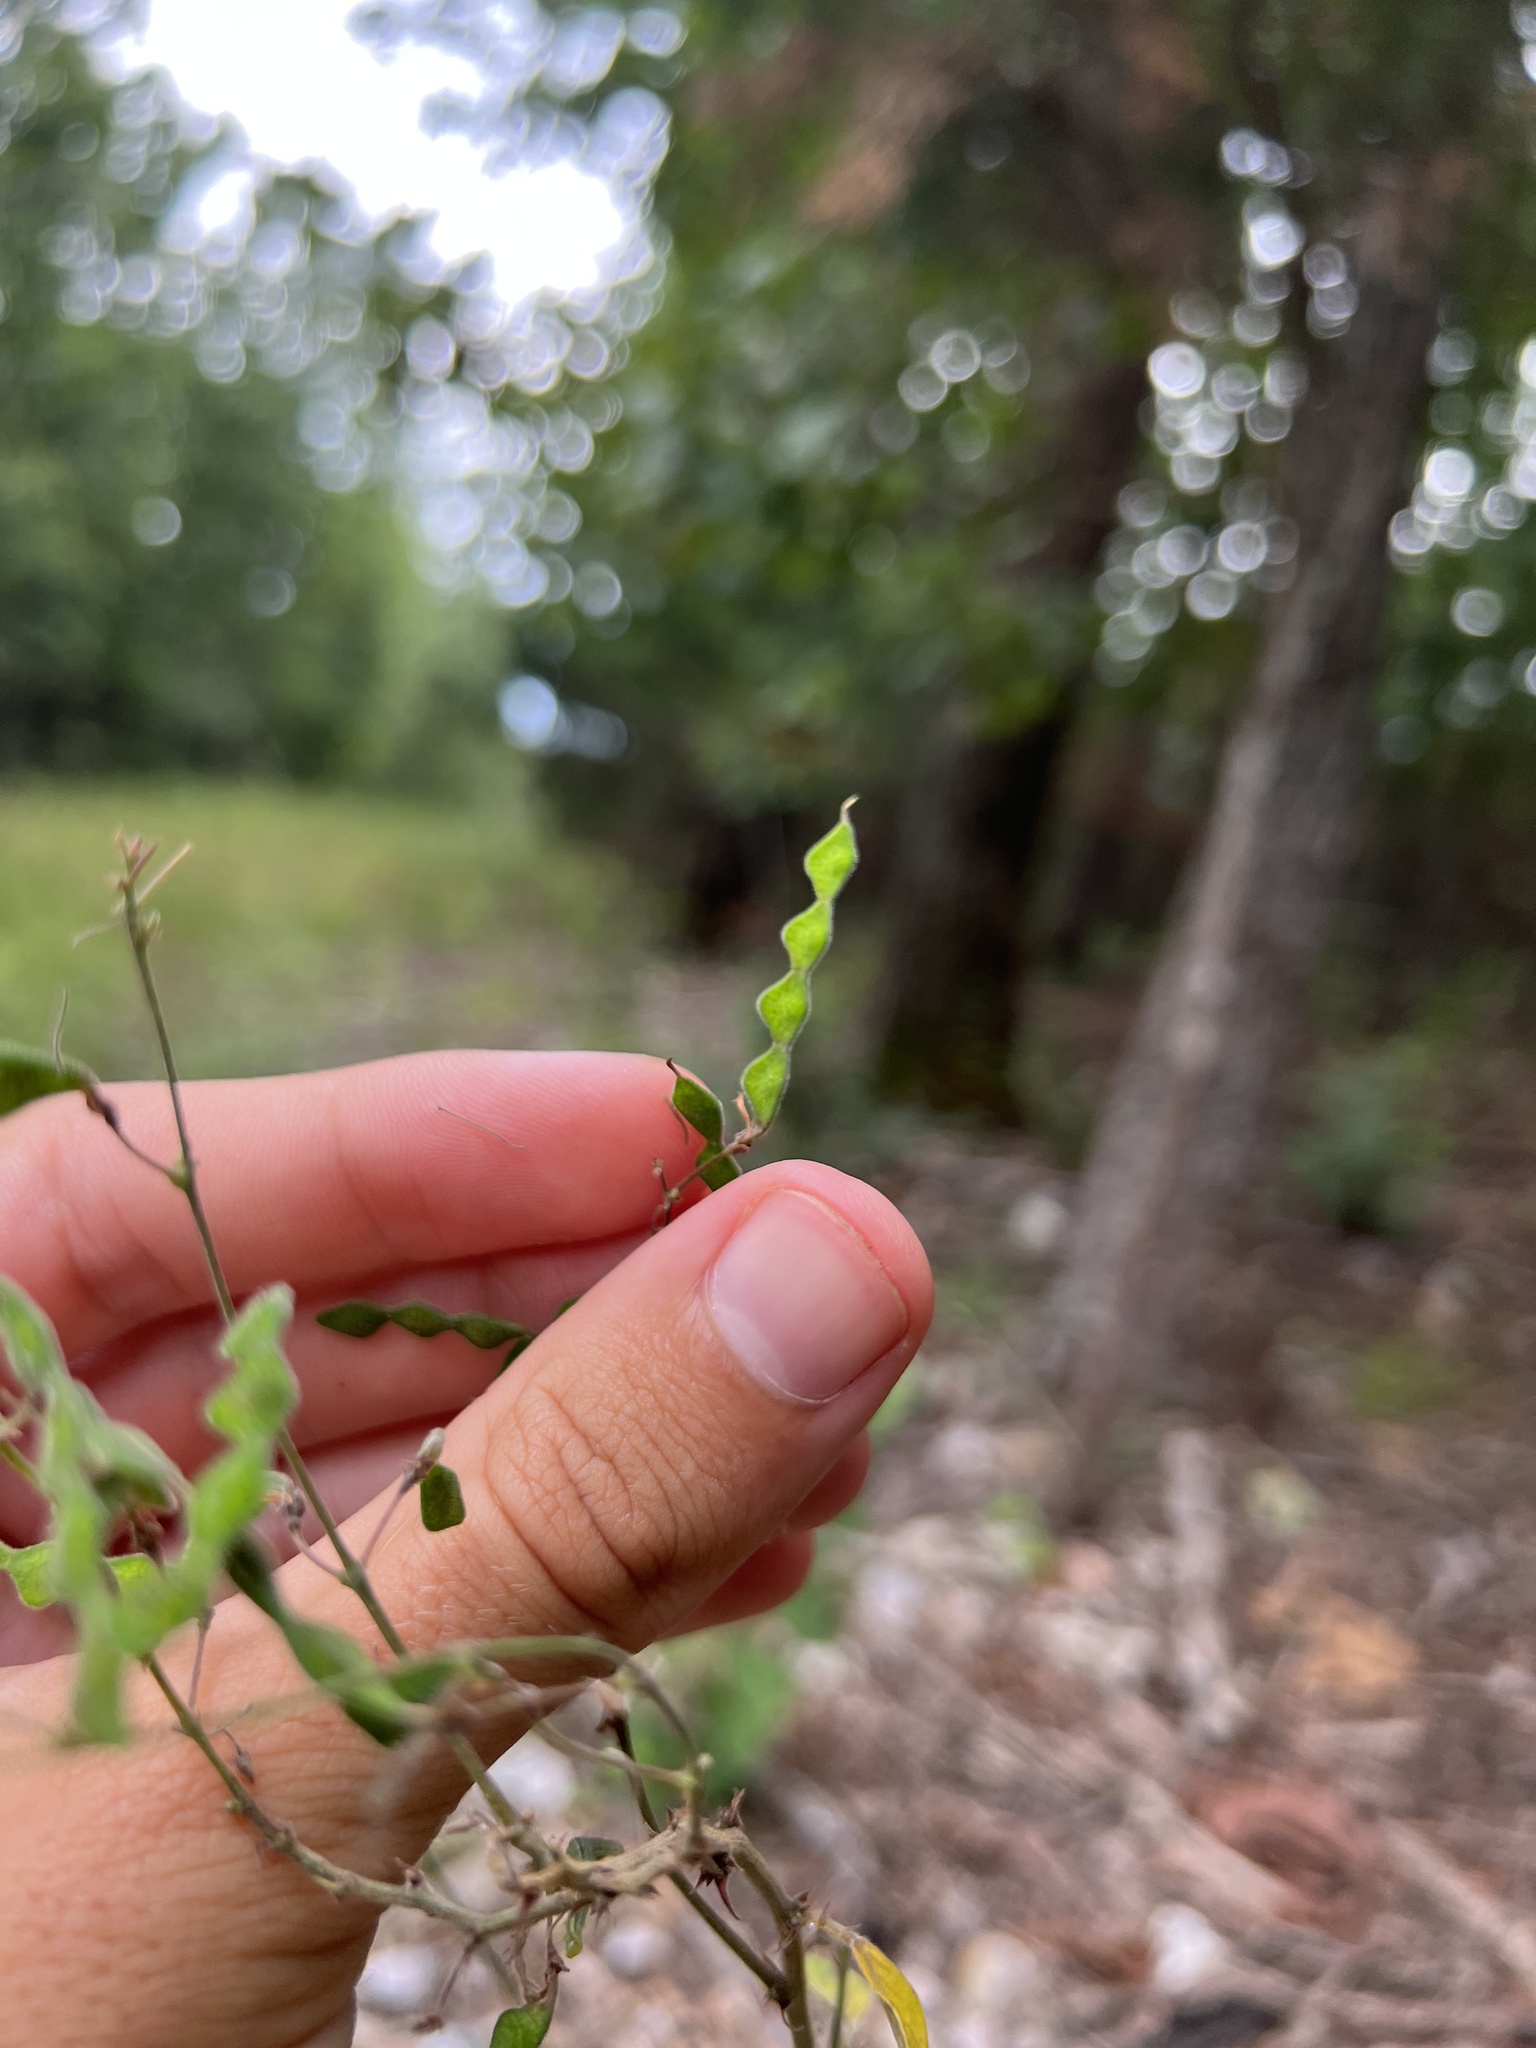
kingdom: Plantae
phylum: Tracheophyta
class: Magnoliopsida
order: Fabales
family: Fabaceae
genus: Desmodium
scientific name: Desmodium perplexum
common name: Perplexed tick trefoil
